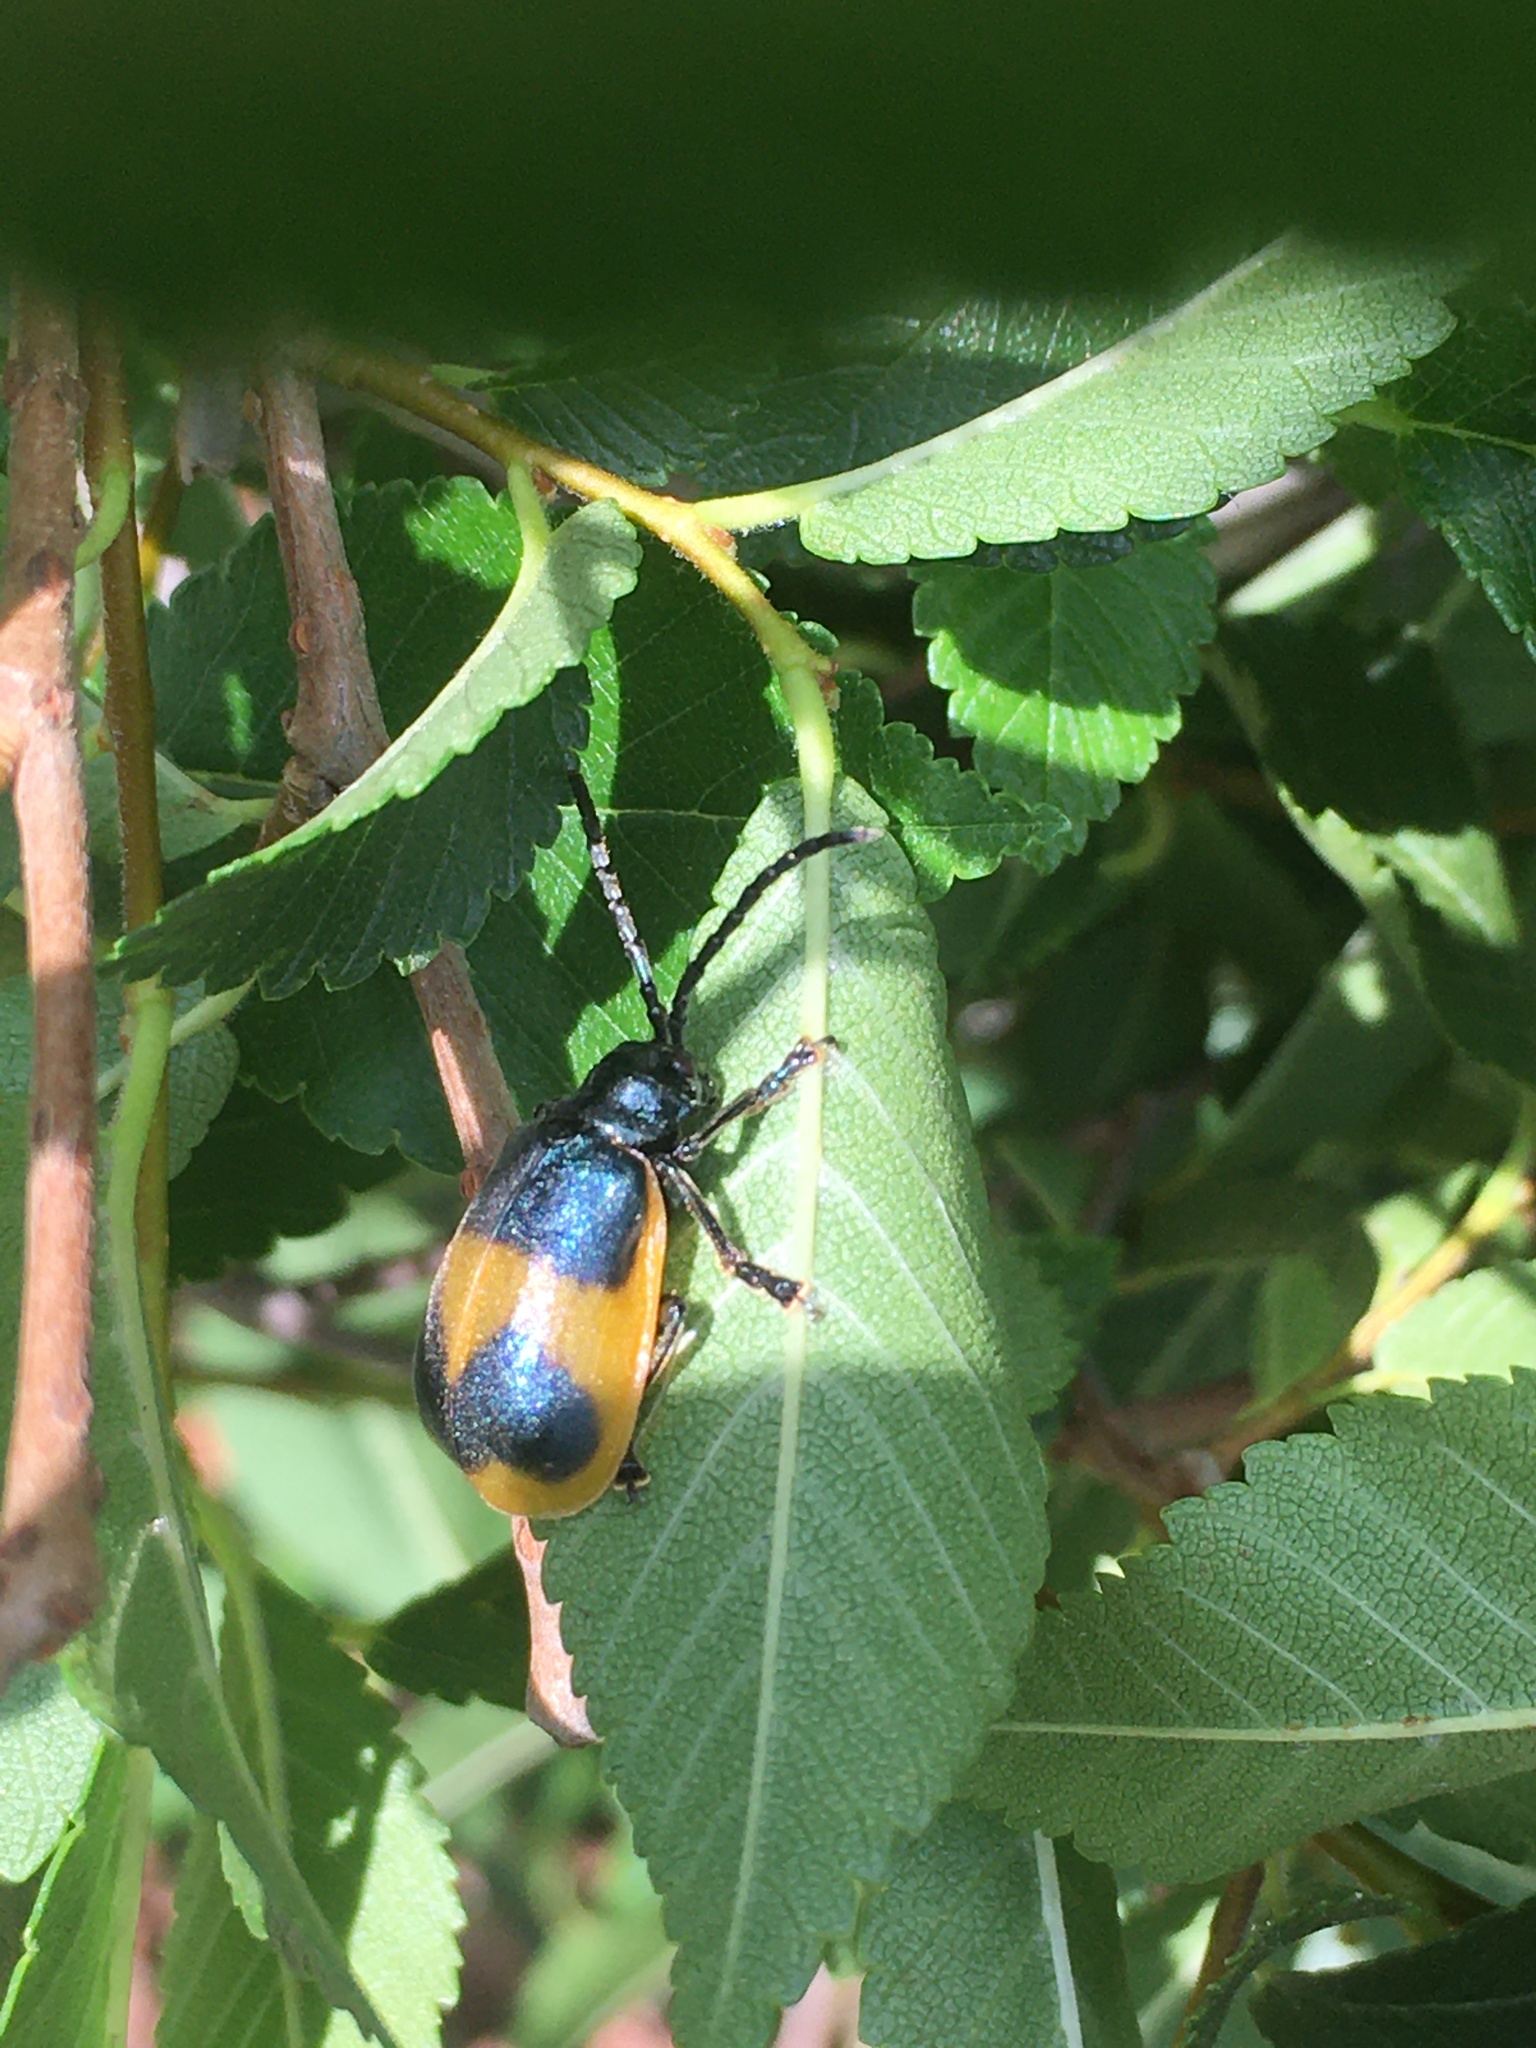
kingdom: Animalia
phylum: Arthropoda
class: Insecta
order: Coleoptera
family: Chrysomelidae
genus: Monocesta
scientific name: Monocesta
